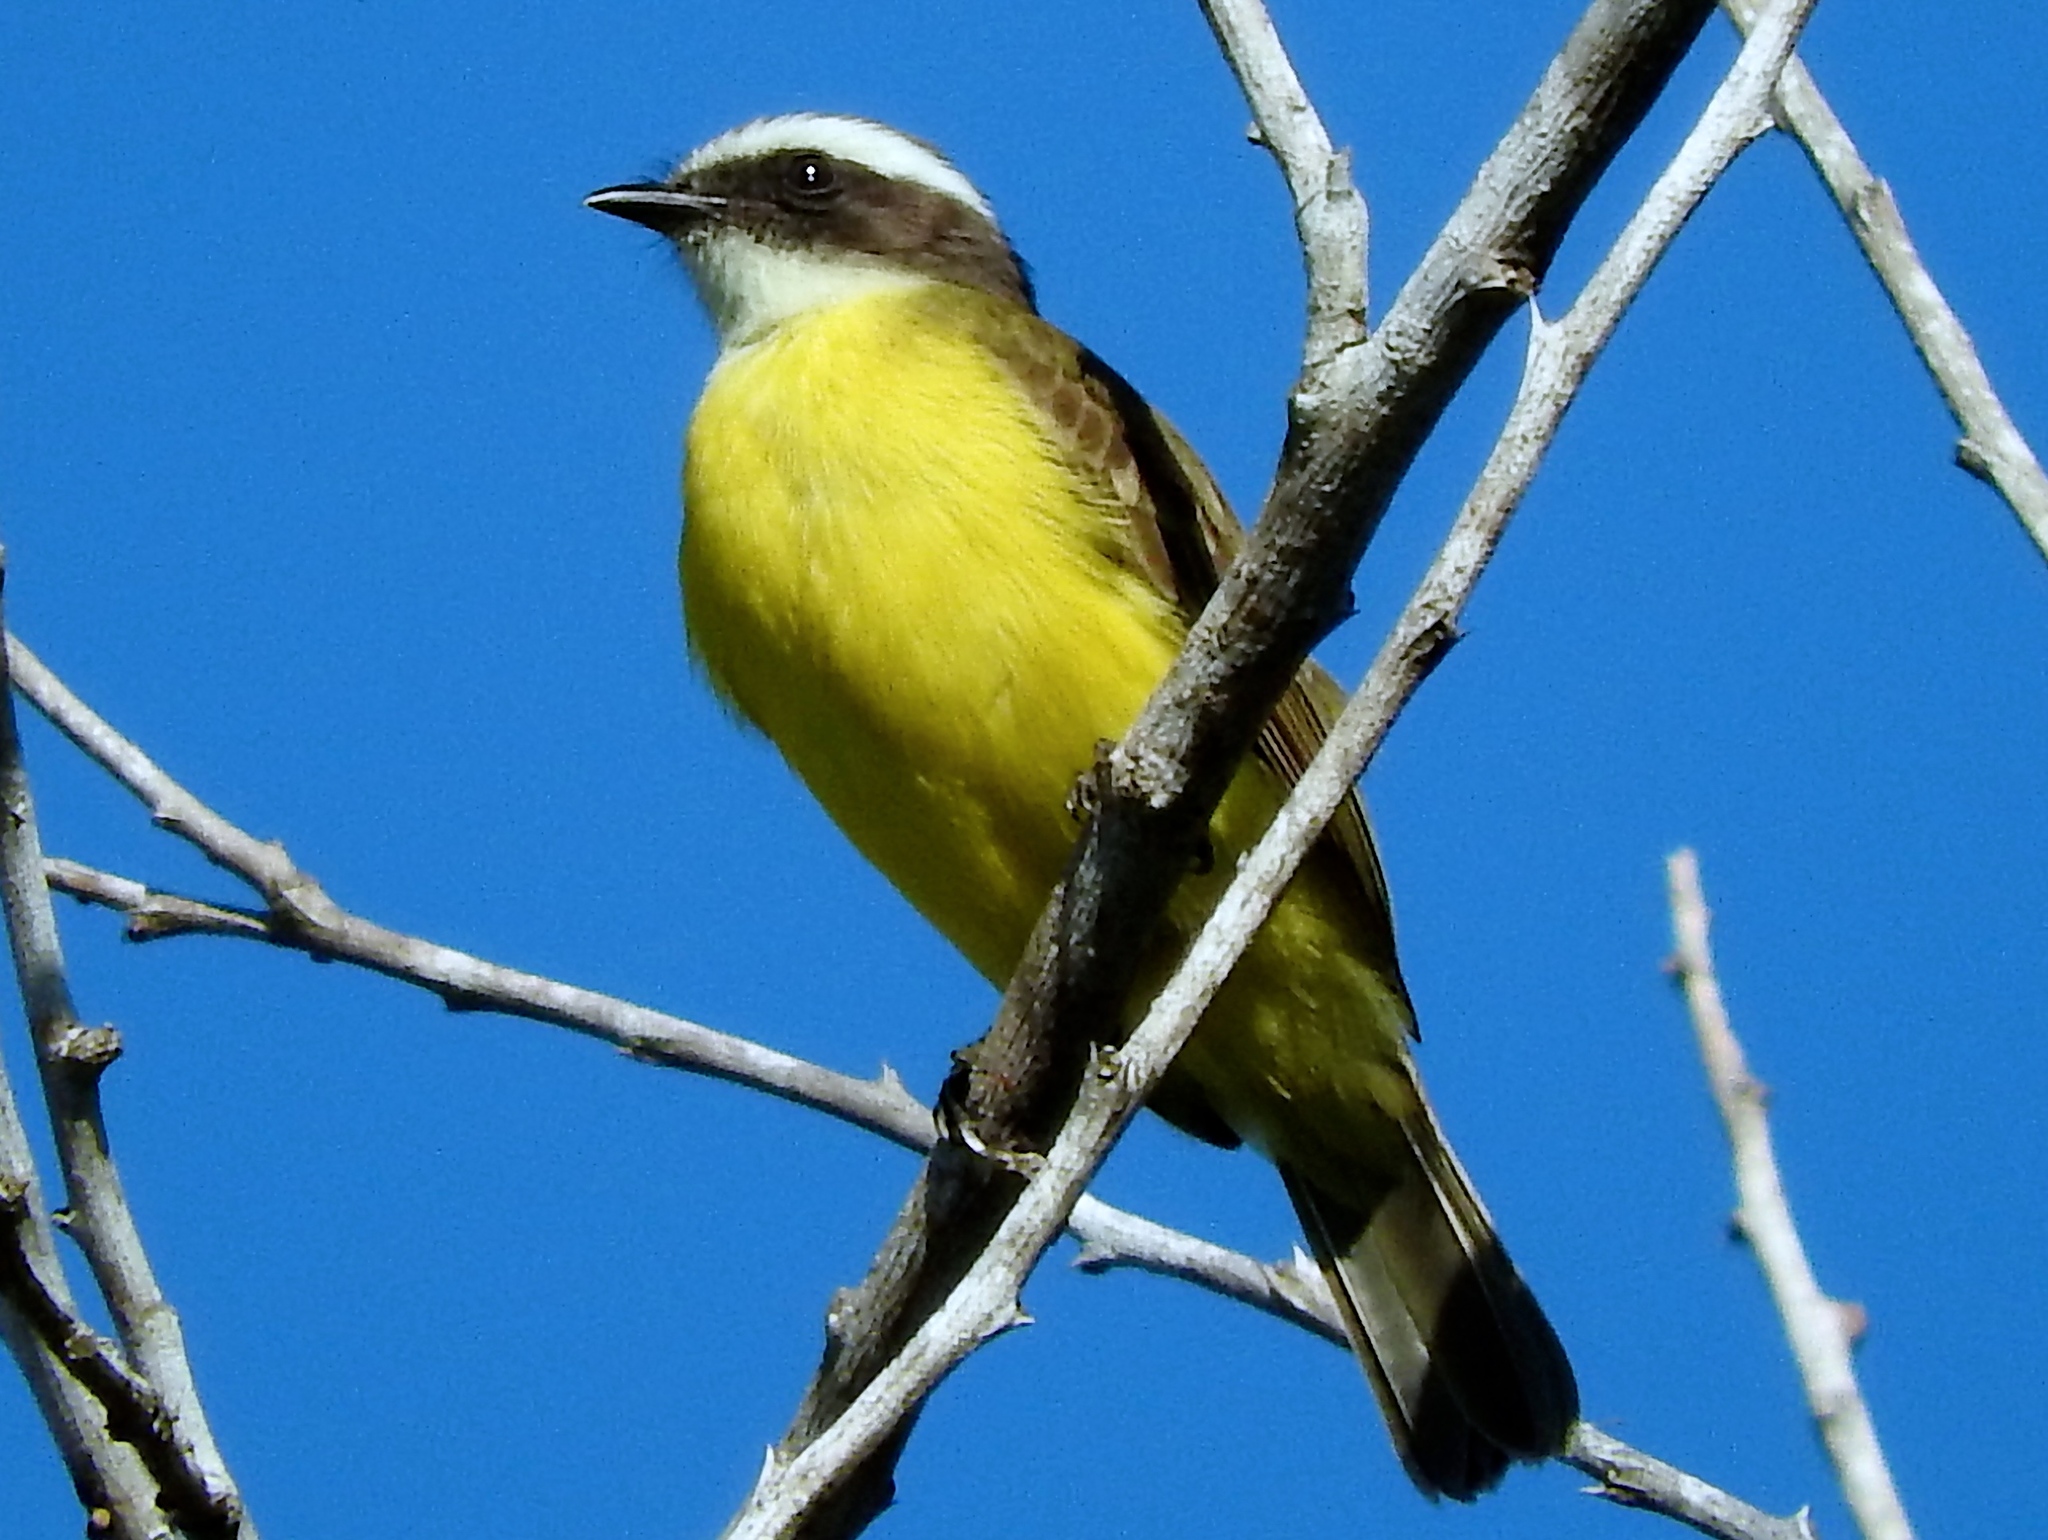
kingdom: Animalia
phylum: Chordata
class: Aves
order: Passeriformes
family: Tyrannidae
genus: Myiozetetes
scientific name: Myiozetetes similis
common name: Social flycatcher
